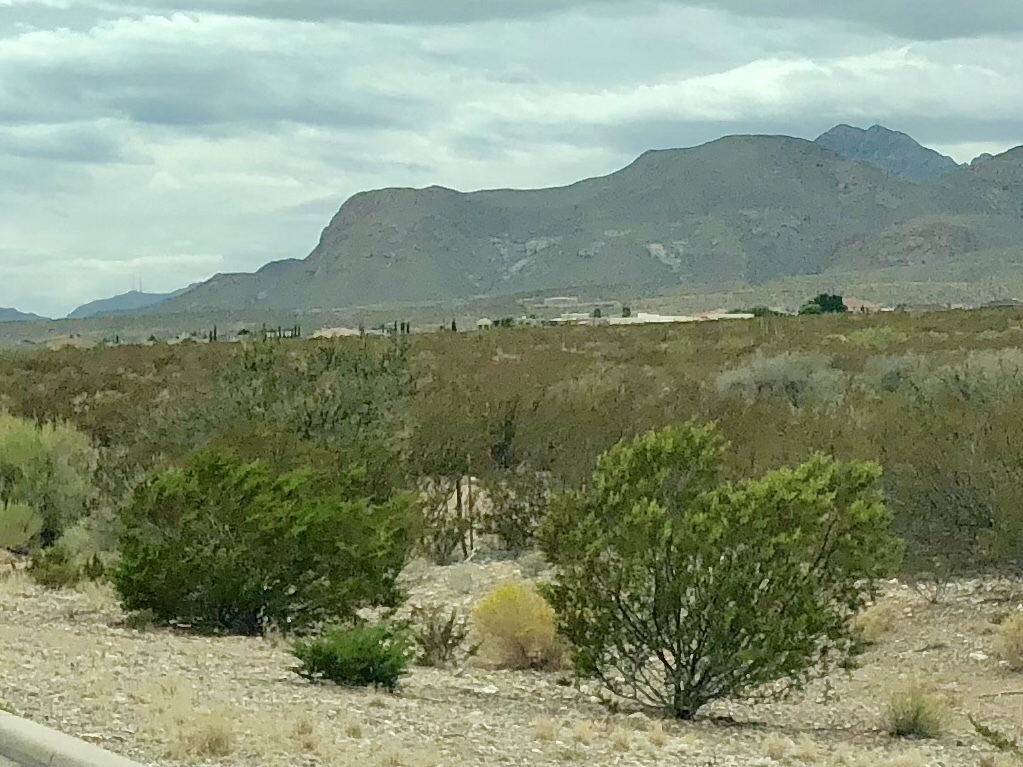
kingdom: Plantae
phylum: Tracheophyta
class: Magnoliopsida
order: Zygophyllales
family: Zygophyllaceae
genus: Larrea
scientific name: Larrea tridentata
